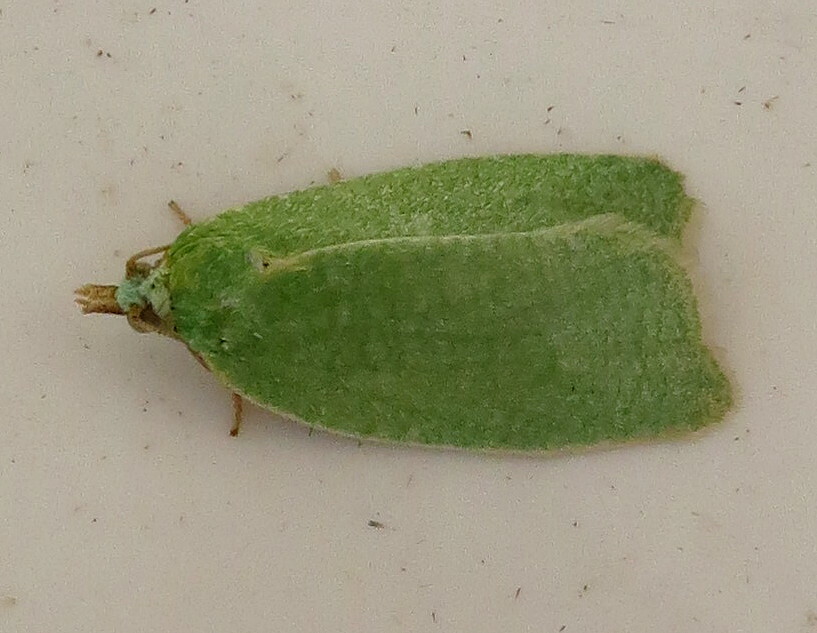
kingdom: Animalia
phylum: Arthropoda
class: Insecta
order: Lepidoptera
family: Tortricidae
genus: Tortrix
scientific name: Tortrix viridana
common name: Green oak tortrix
